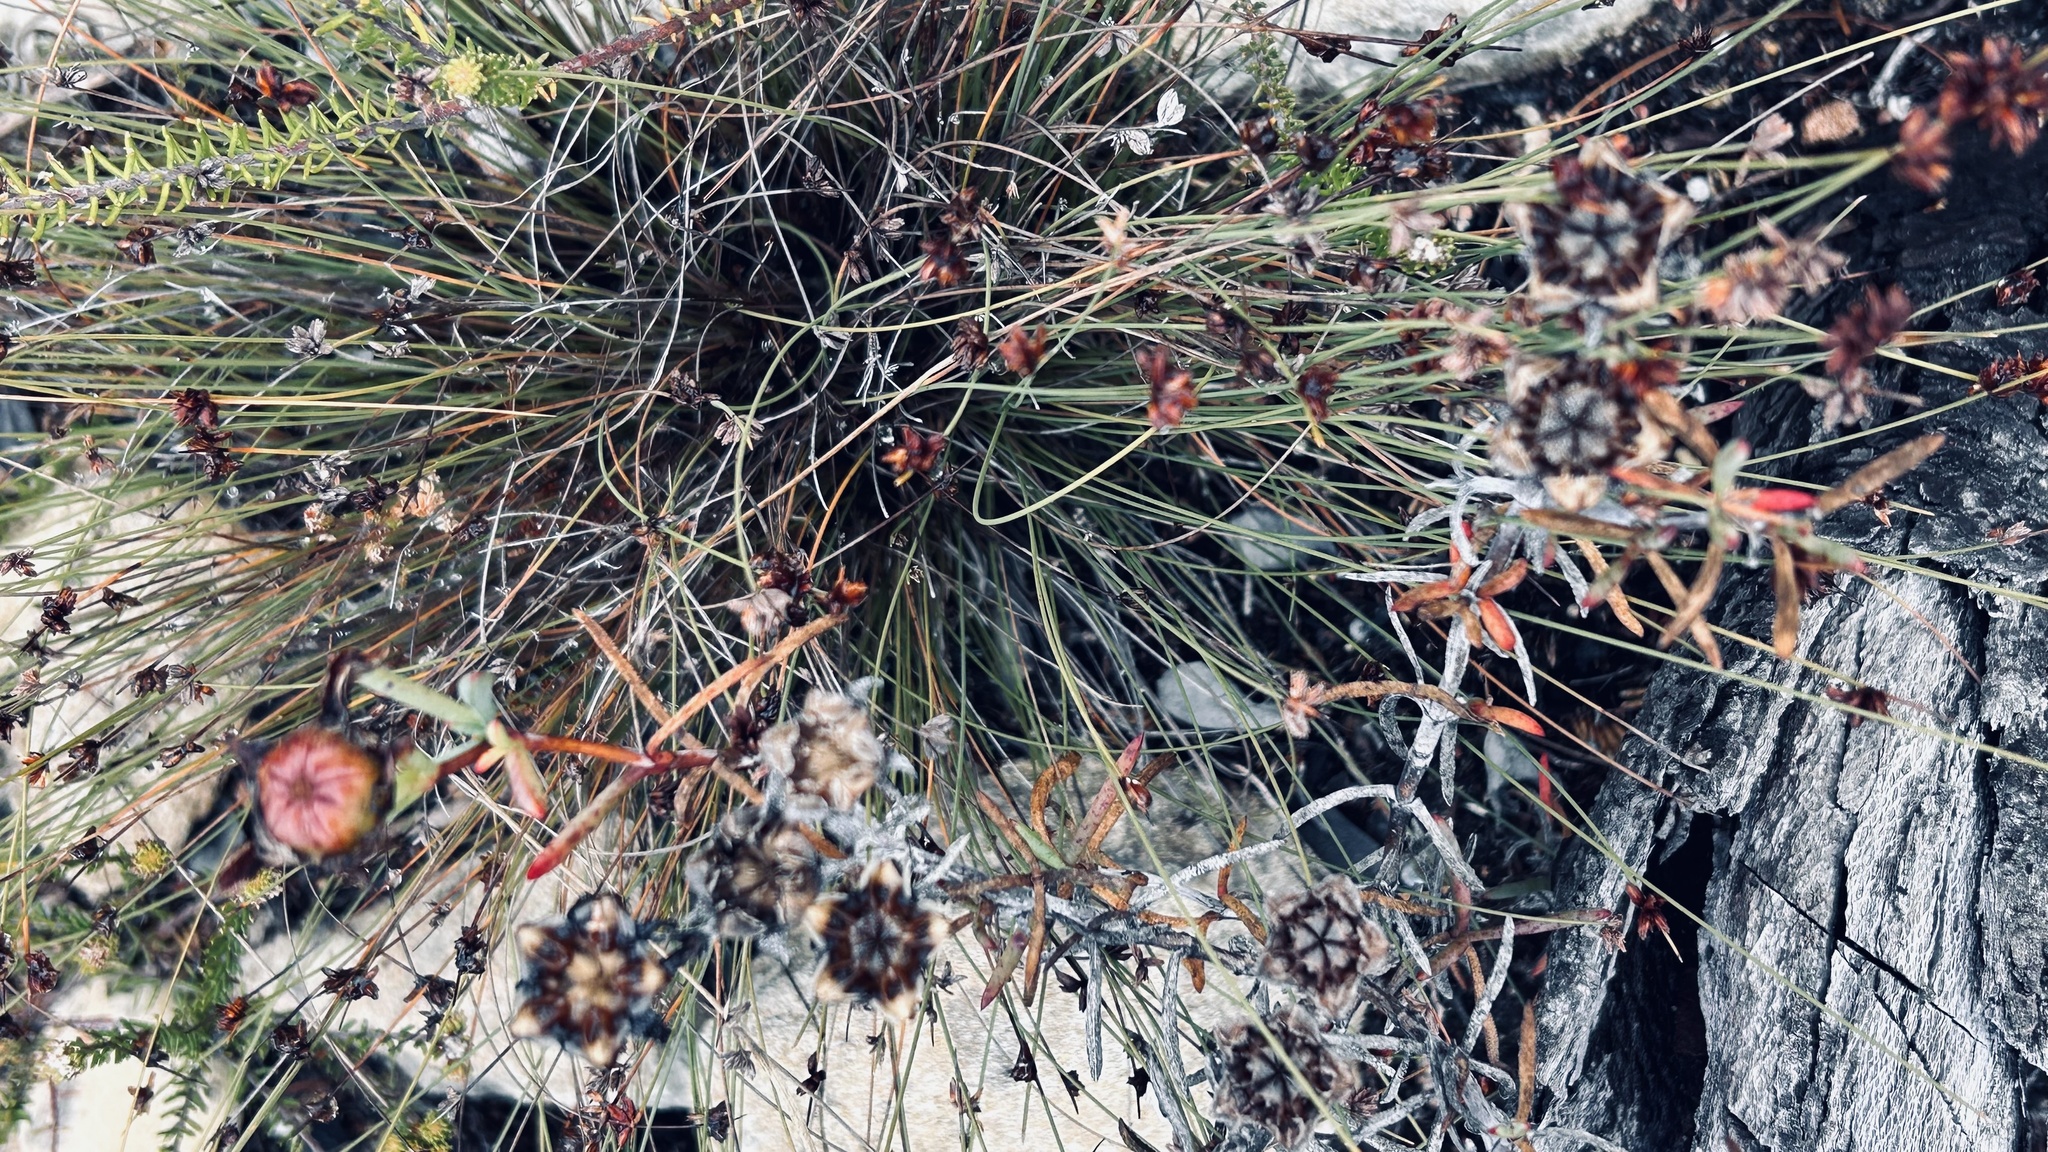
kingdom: Plantae
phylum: Tracheophyta
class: Magnoliopsida
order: Caryophyllales
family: Aizoaceae
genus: Lampranthus
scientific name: Lampranthus bicolor
